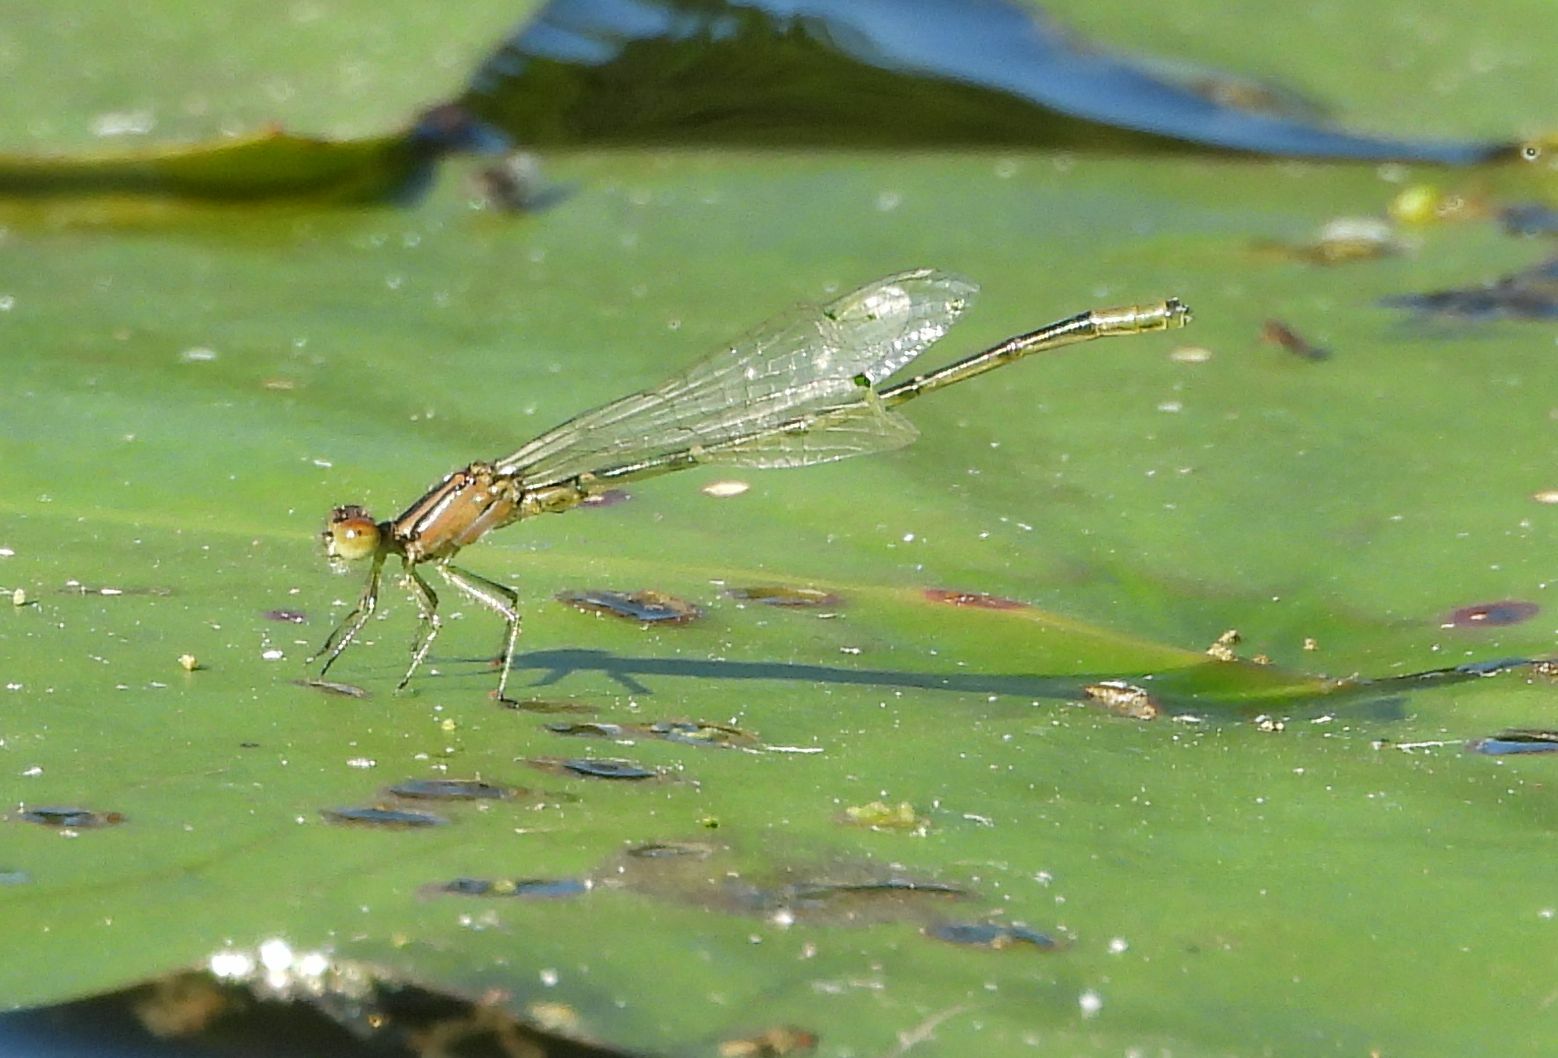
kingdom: Animalia
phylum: Arthropoda
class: Insecta
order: Odonata
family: Coenagrionidae
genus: Ischnura
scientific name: Ischnura verticalis
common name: Eastern forktail
